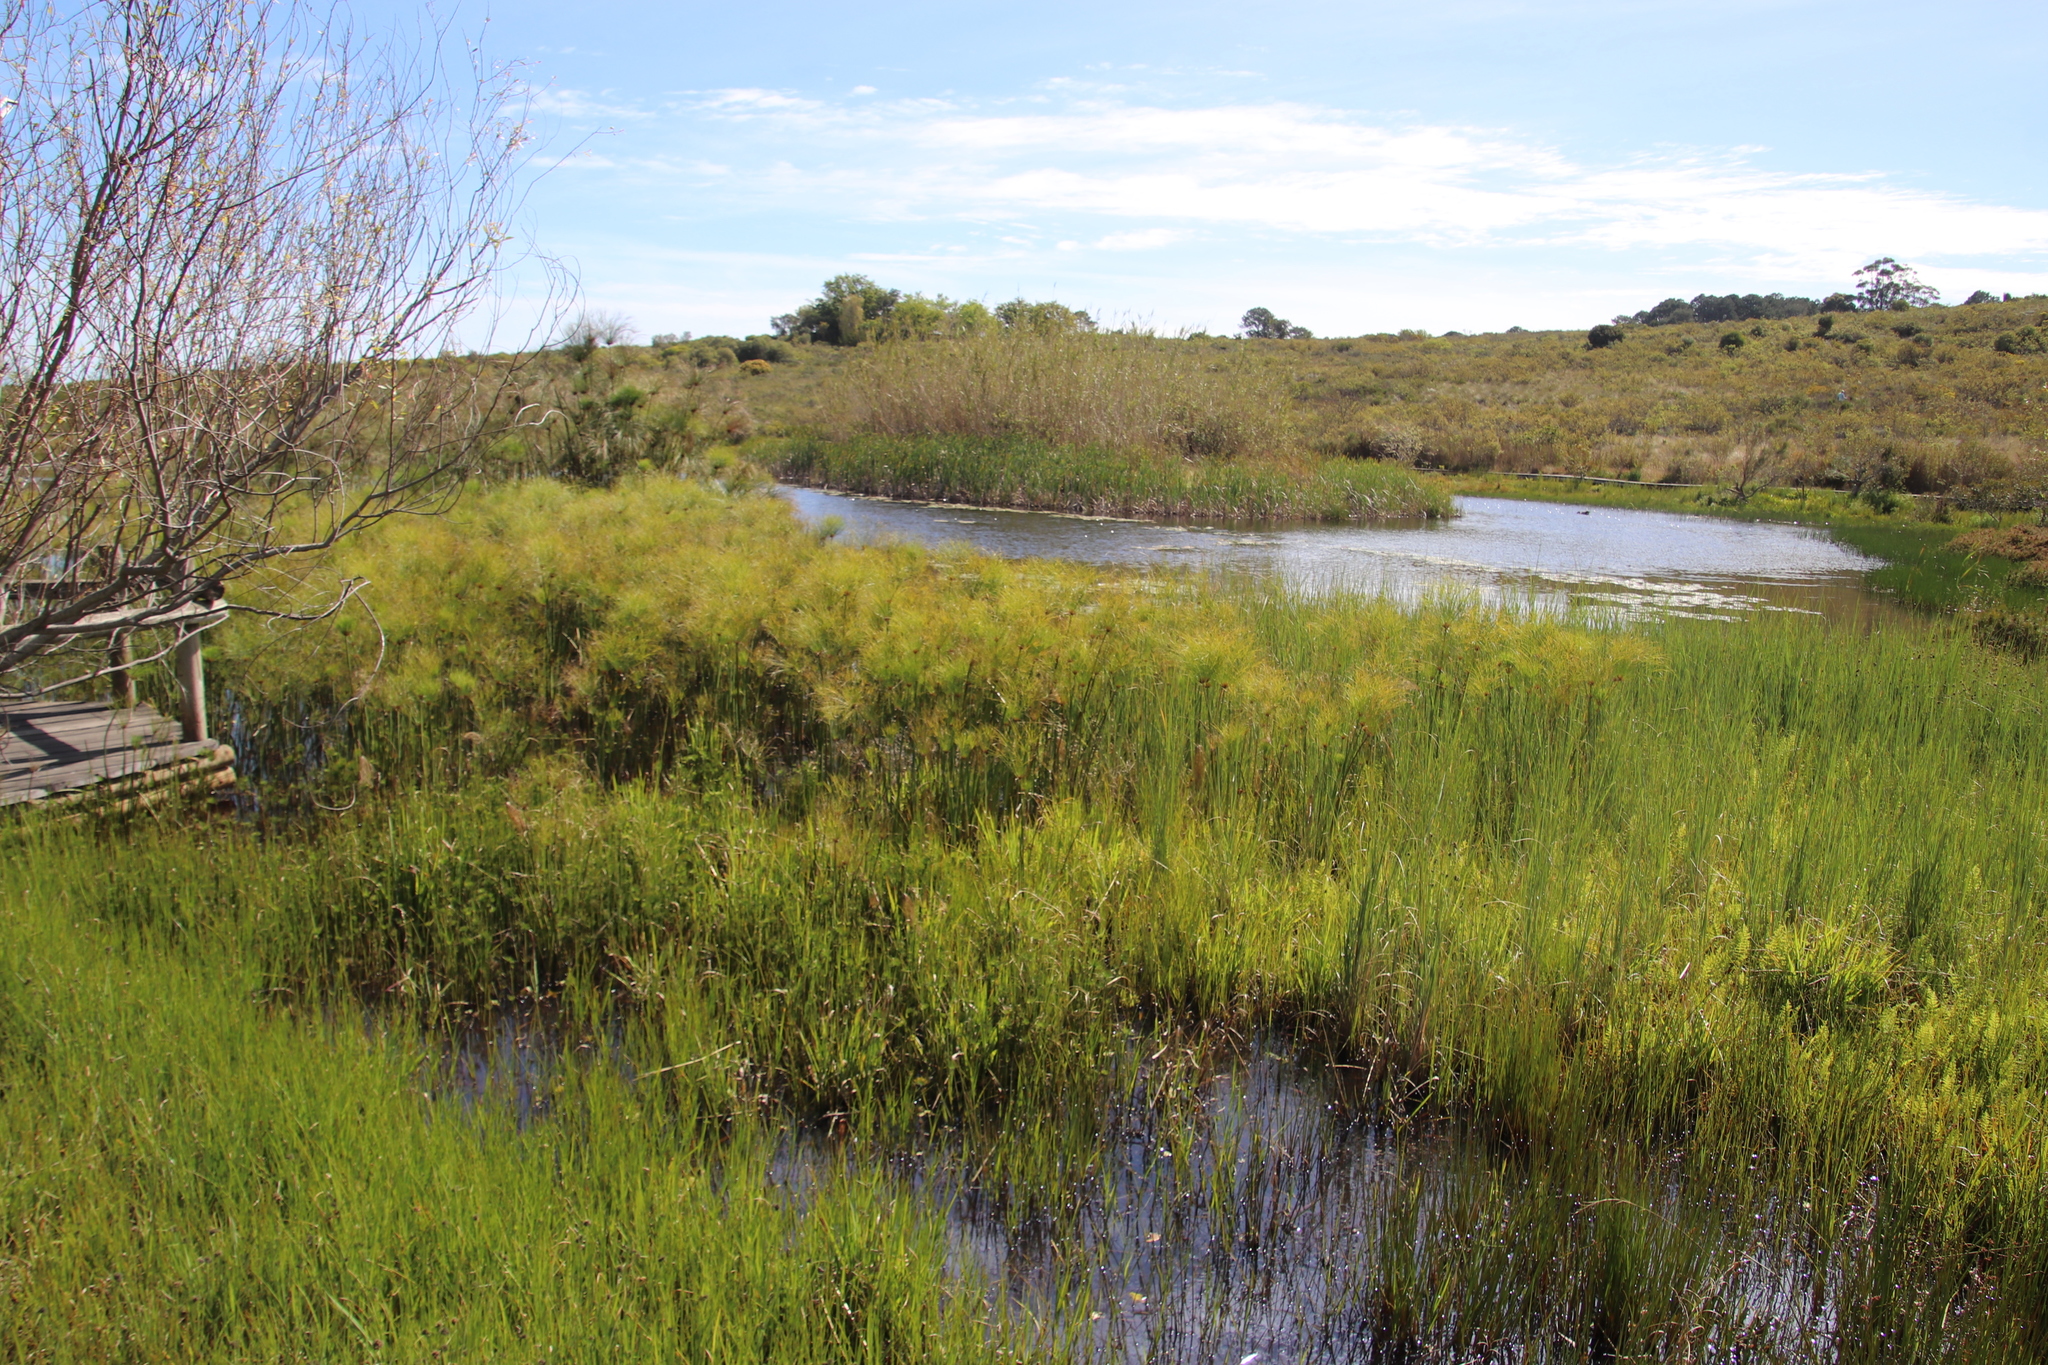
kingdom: Plantae
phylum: Tracheophyta
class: Liliopsida
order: Poales
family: Cyperaceae
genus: Cyperus
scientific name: Cyperus papyrus
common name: Papyrus
